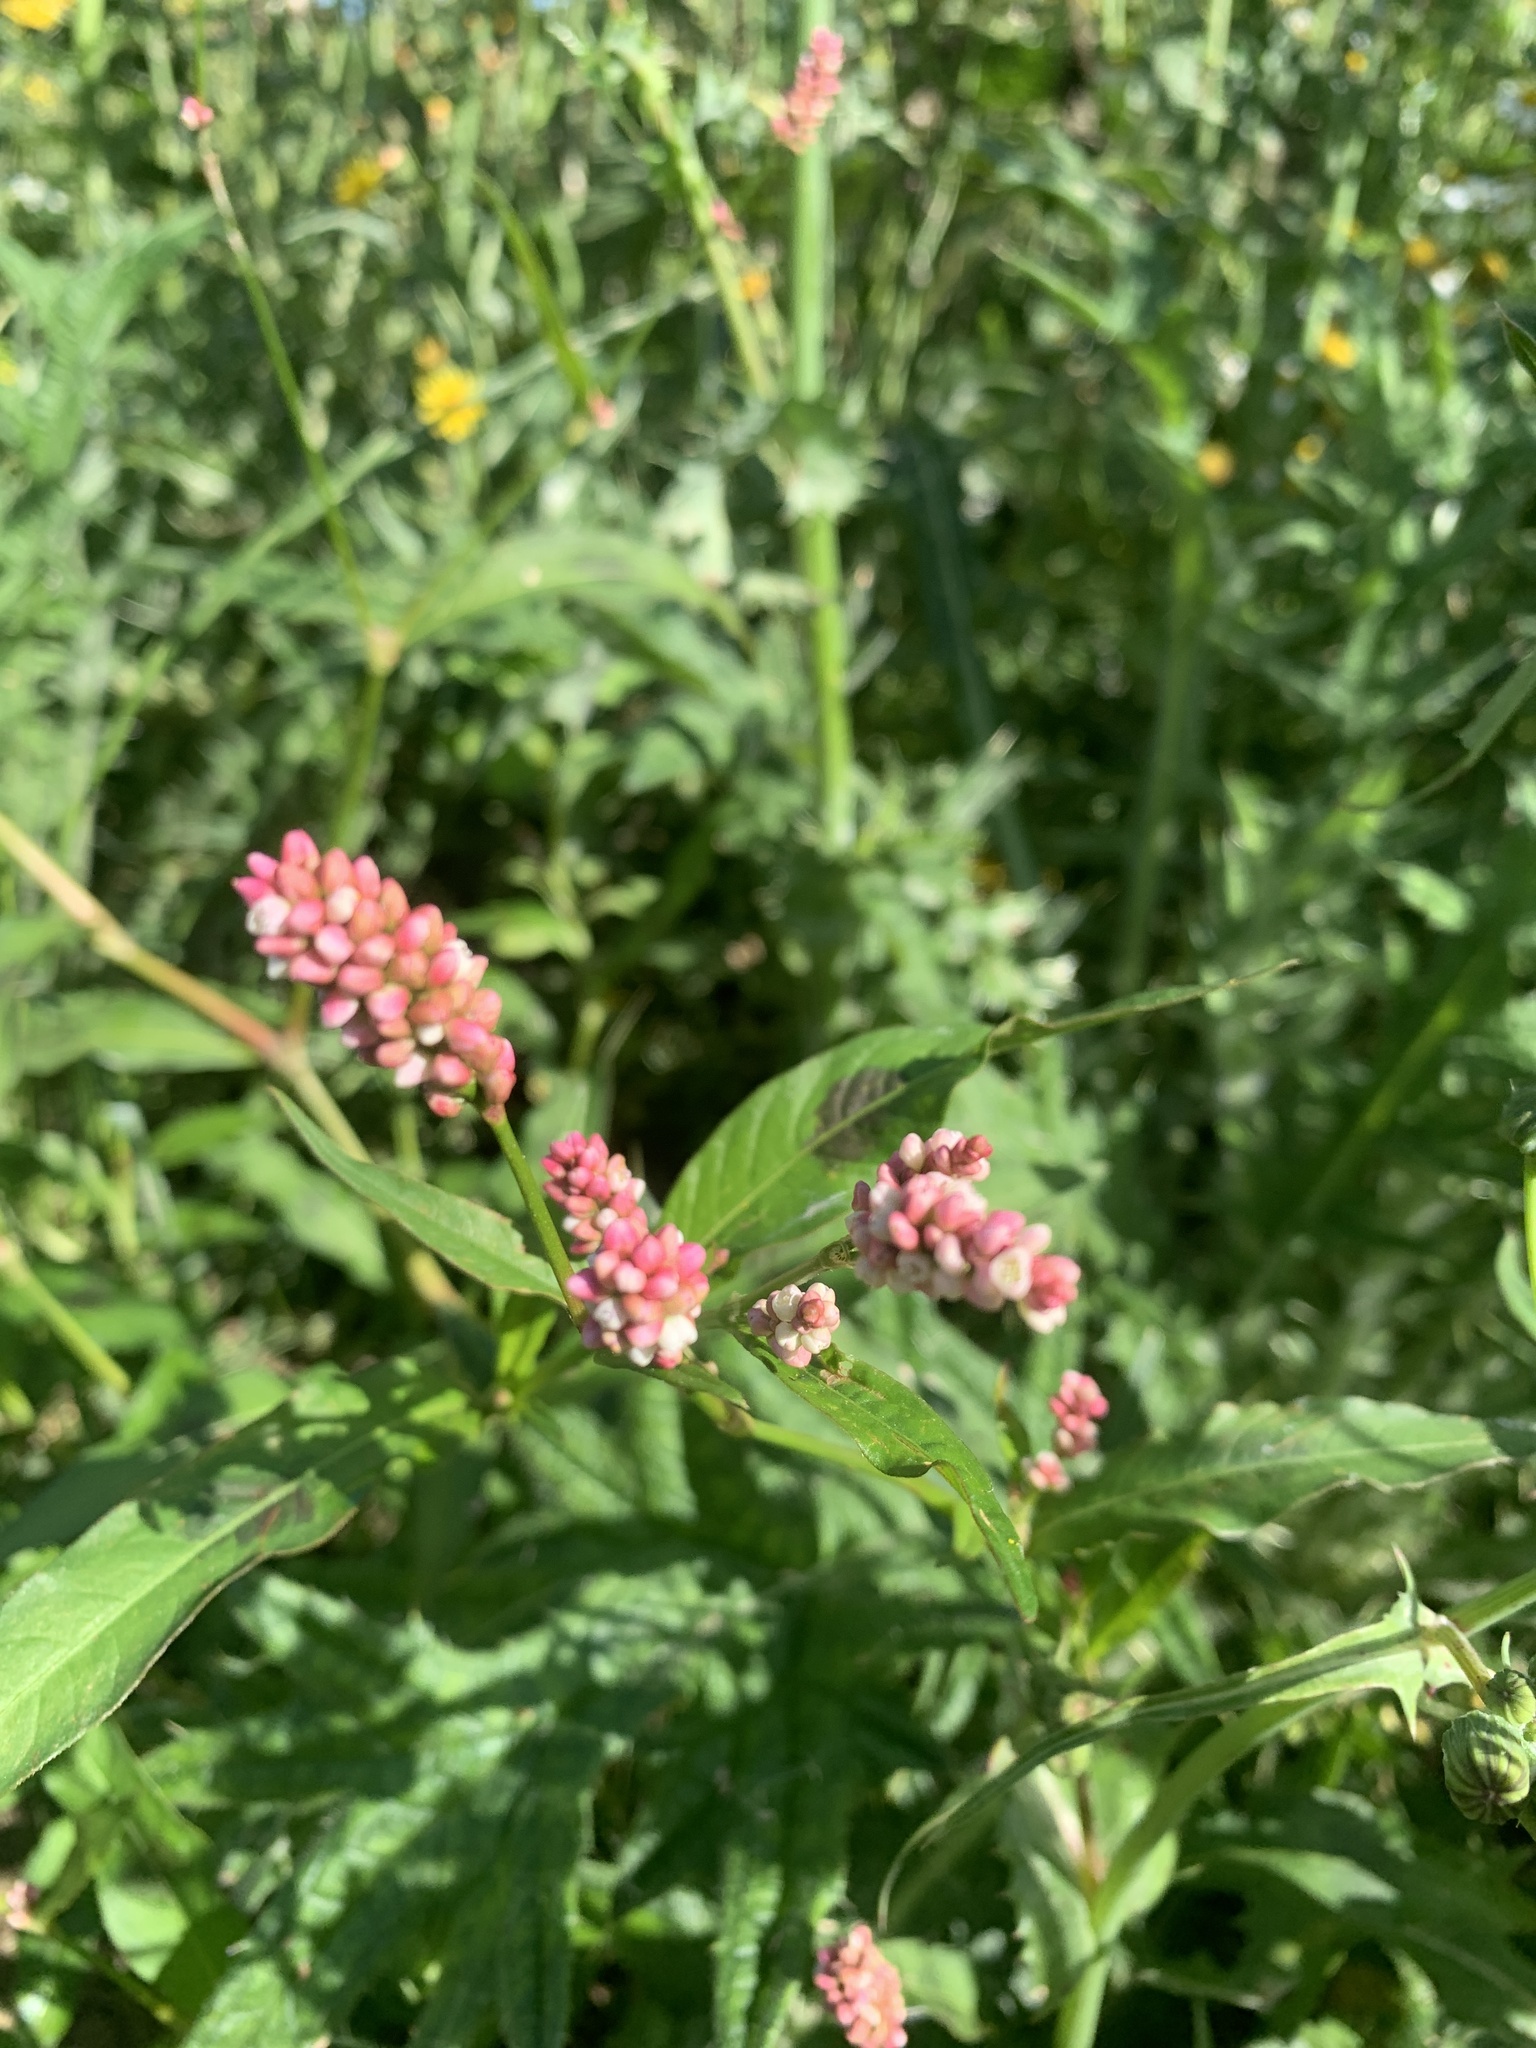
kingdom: Plantae
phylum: Tracheophyta
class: Magnoliopsida
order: Caryophyllales
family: Polygonaceae
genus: Persicaria
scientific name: Persicaria maculosa
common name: Redshank
